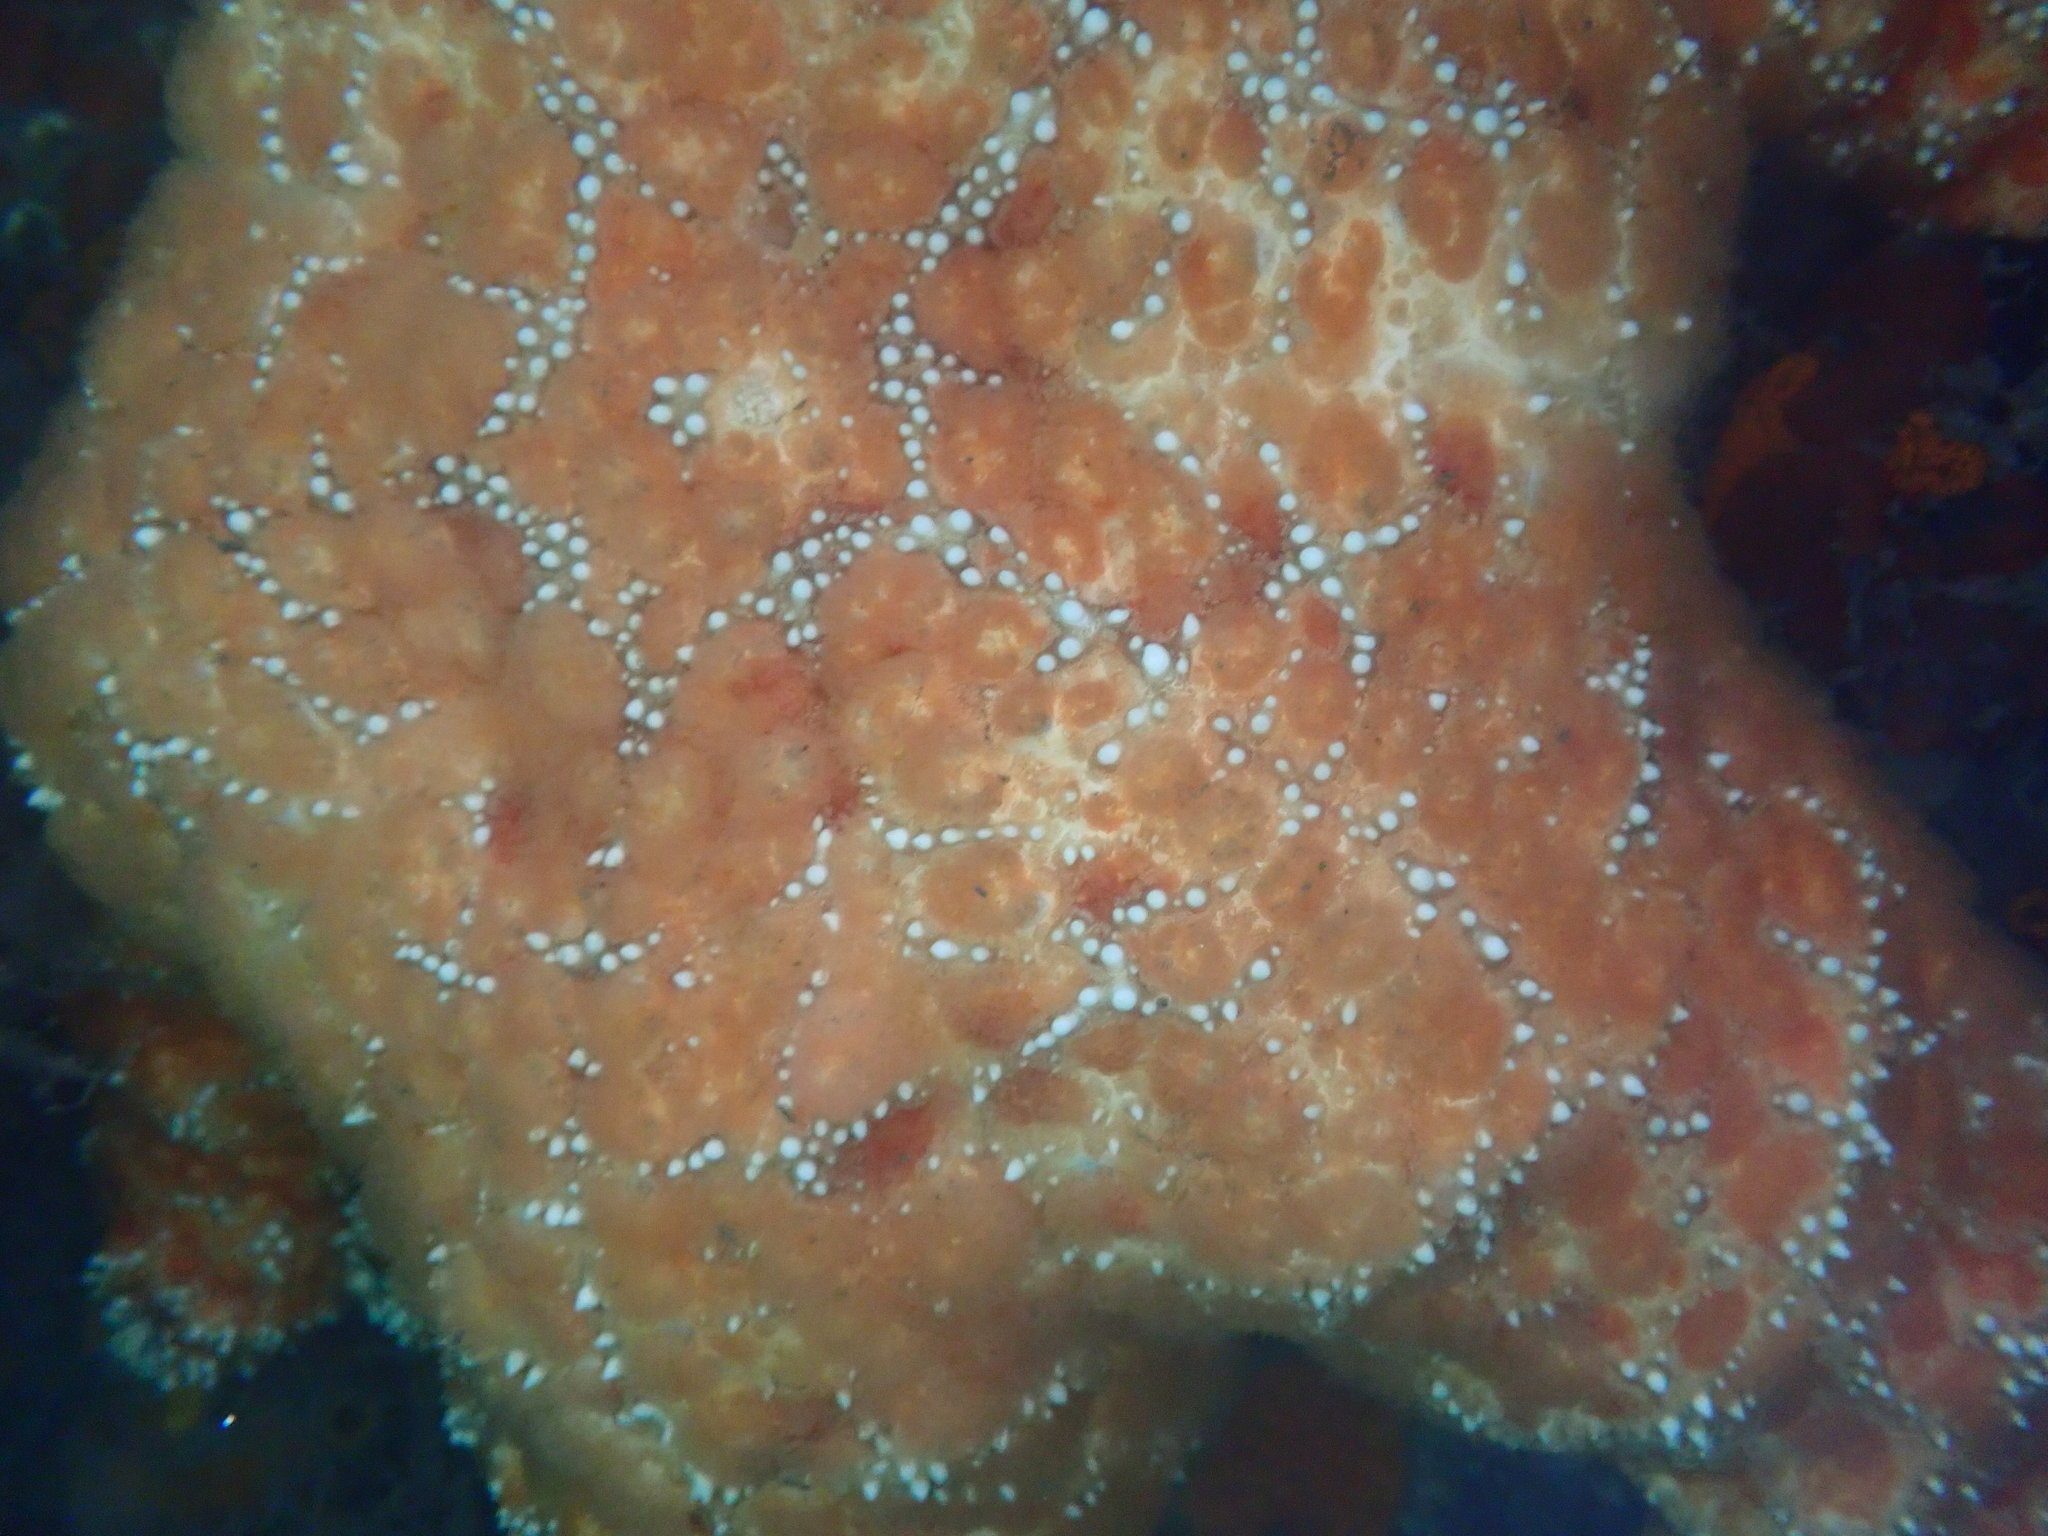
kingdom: Animalia
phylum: Echinodermata
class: Asteroidea
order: Forcipulatida
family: Asteriidae
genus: Pisaster
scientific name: Pisaster ochraceus
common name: Ochre stars
